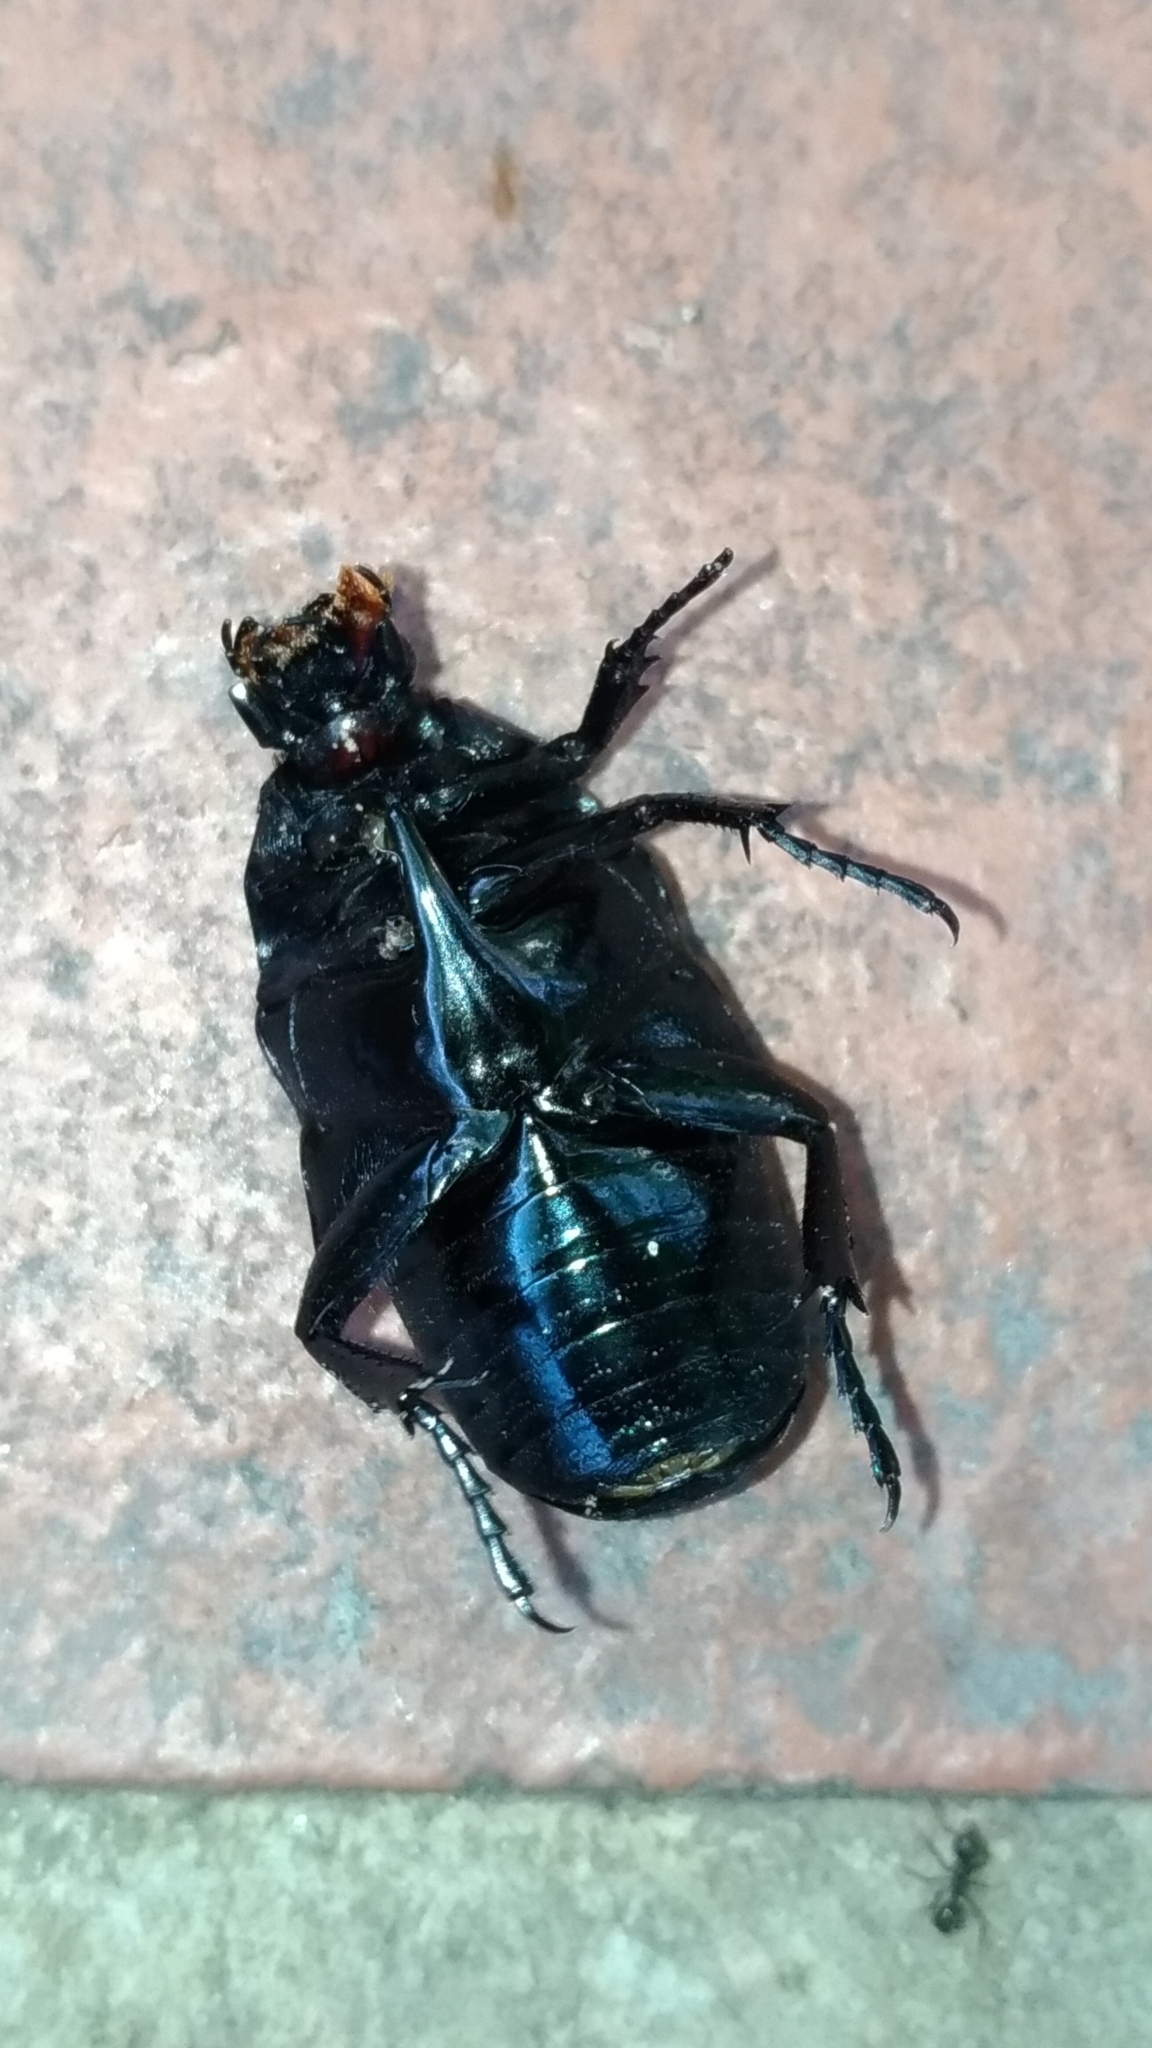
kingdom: Animalia
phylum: Arthropoda
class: Insecta
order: Coleoptera
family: Scarabaeidae
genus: Macronota
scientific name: Macronota shangaicus
